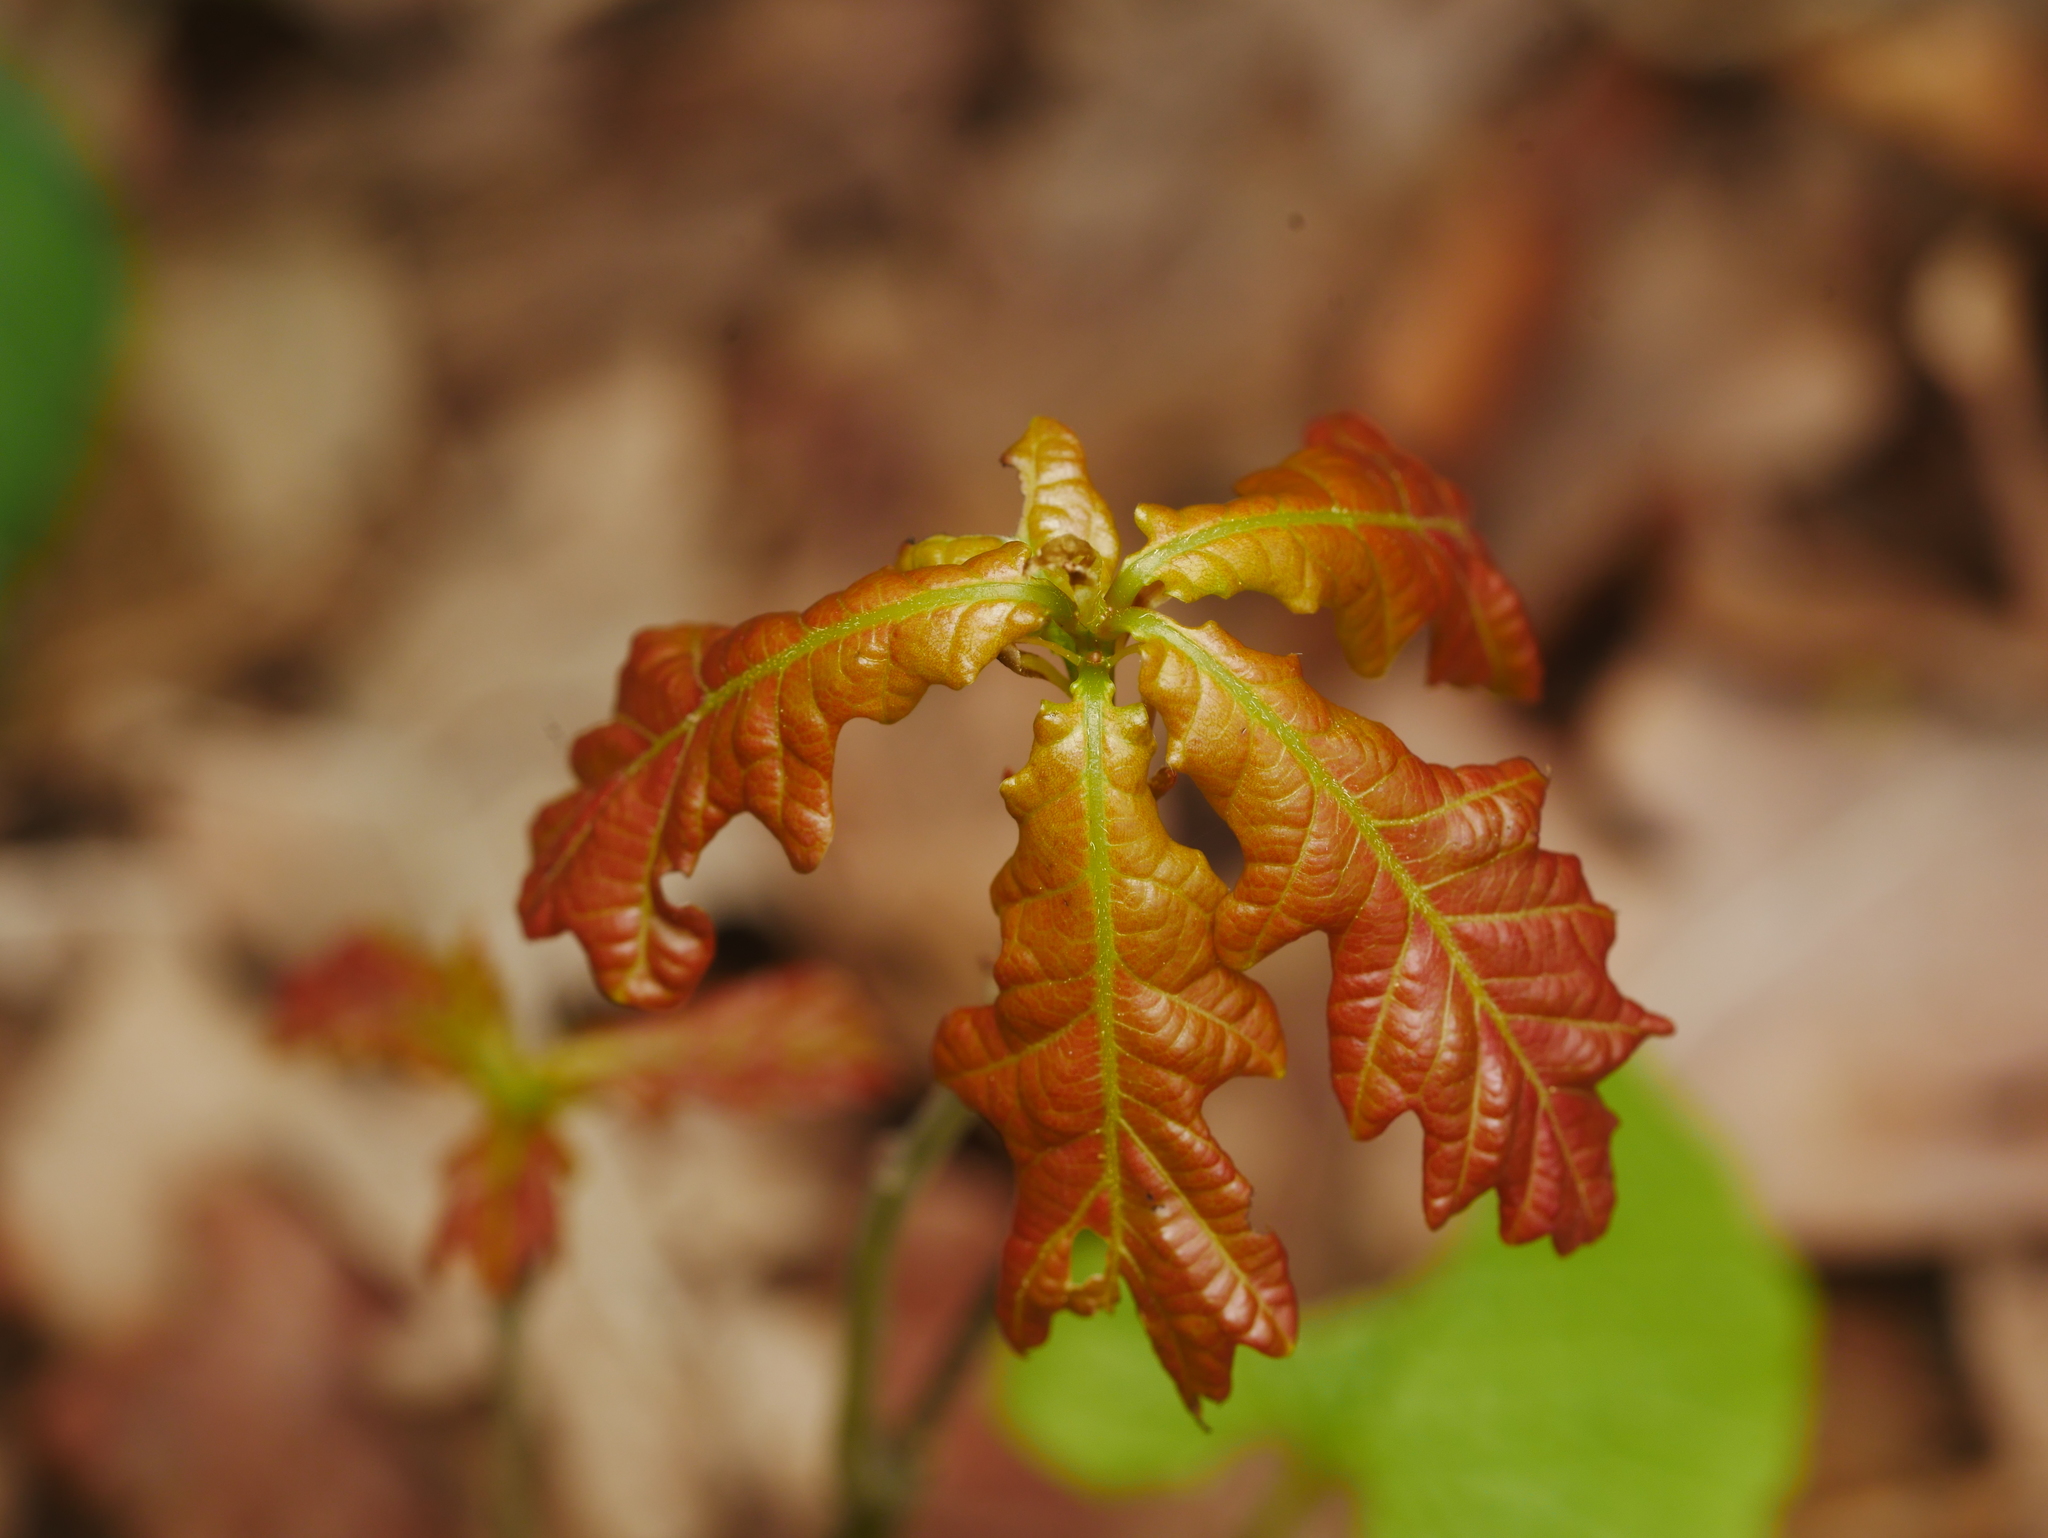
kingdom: Plantae
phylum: Tracheophyta
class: Magnoliopsida
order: Fagales
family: Fagaceae
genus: Quercus
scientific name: Quercus robur
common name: Pedunculate oak
